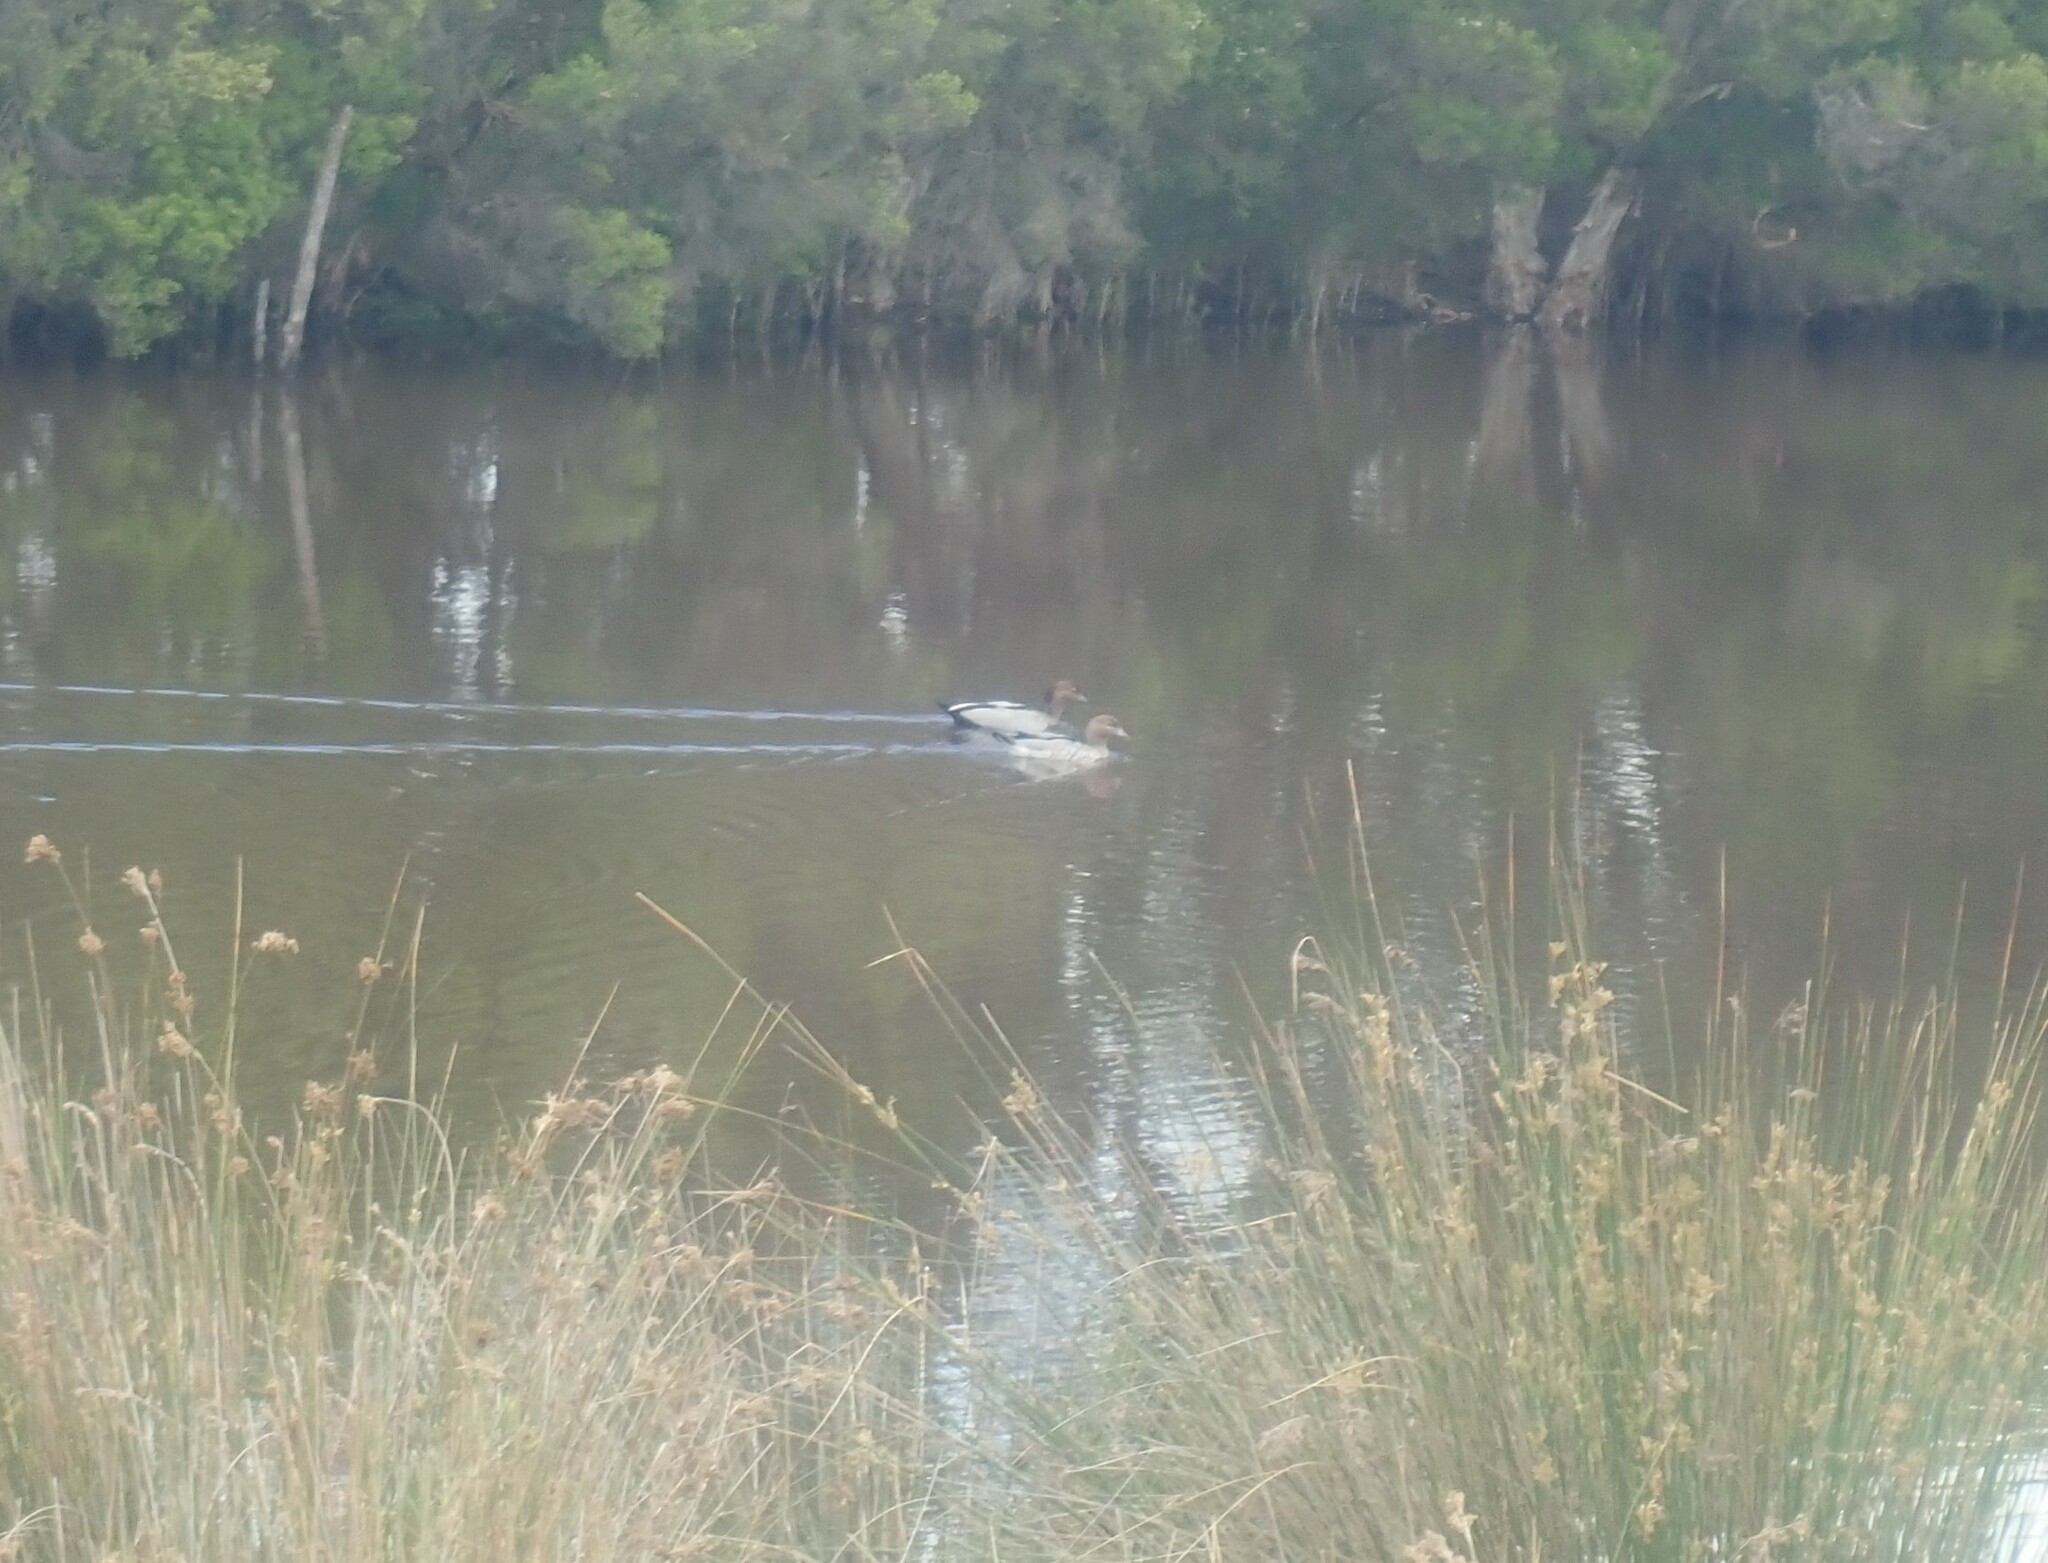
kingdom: Animalia
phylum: Chordata
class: Aves
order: Anseriformes
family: Anatidae
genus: Chenonetta
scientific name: Chenonetta jubata
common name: Maned duck
